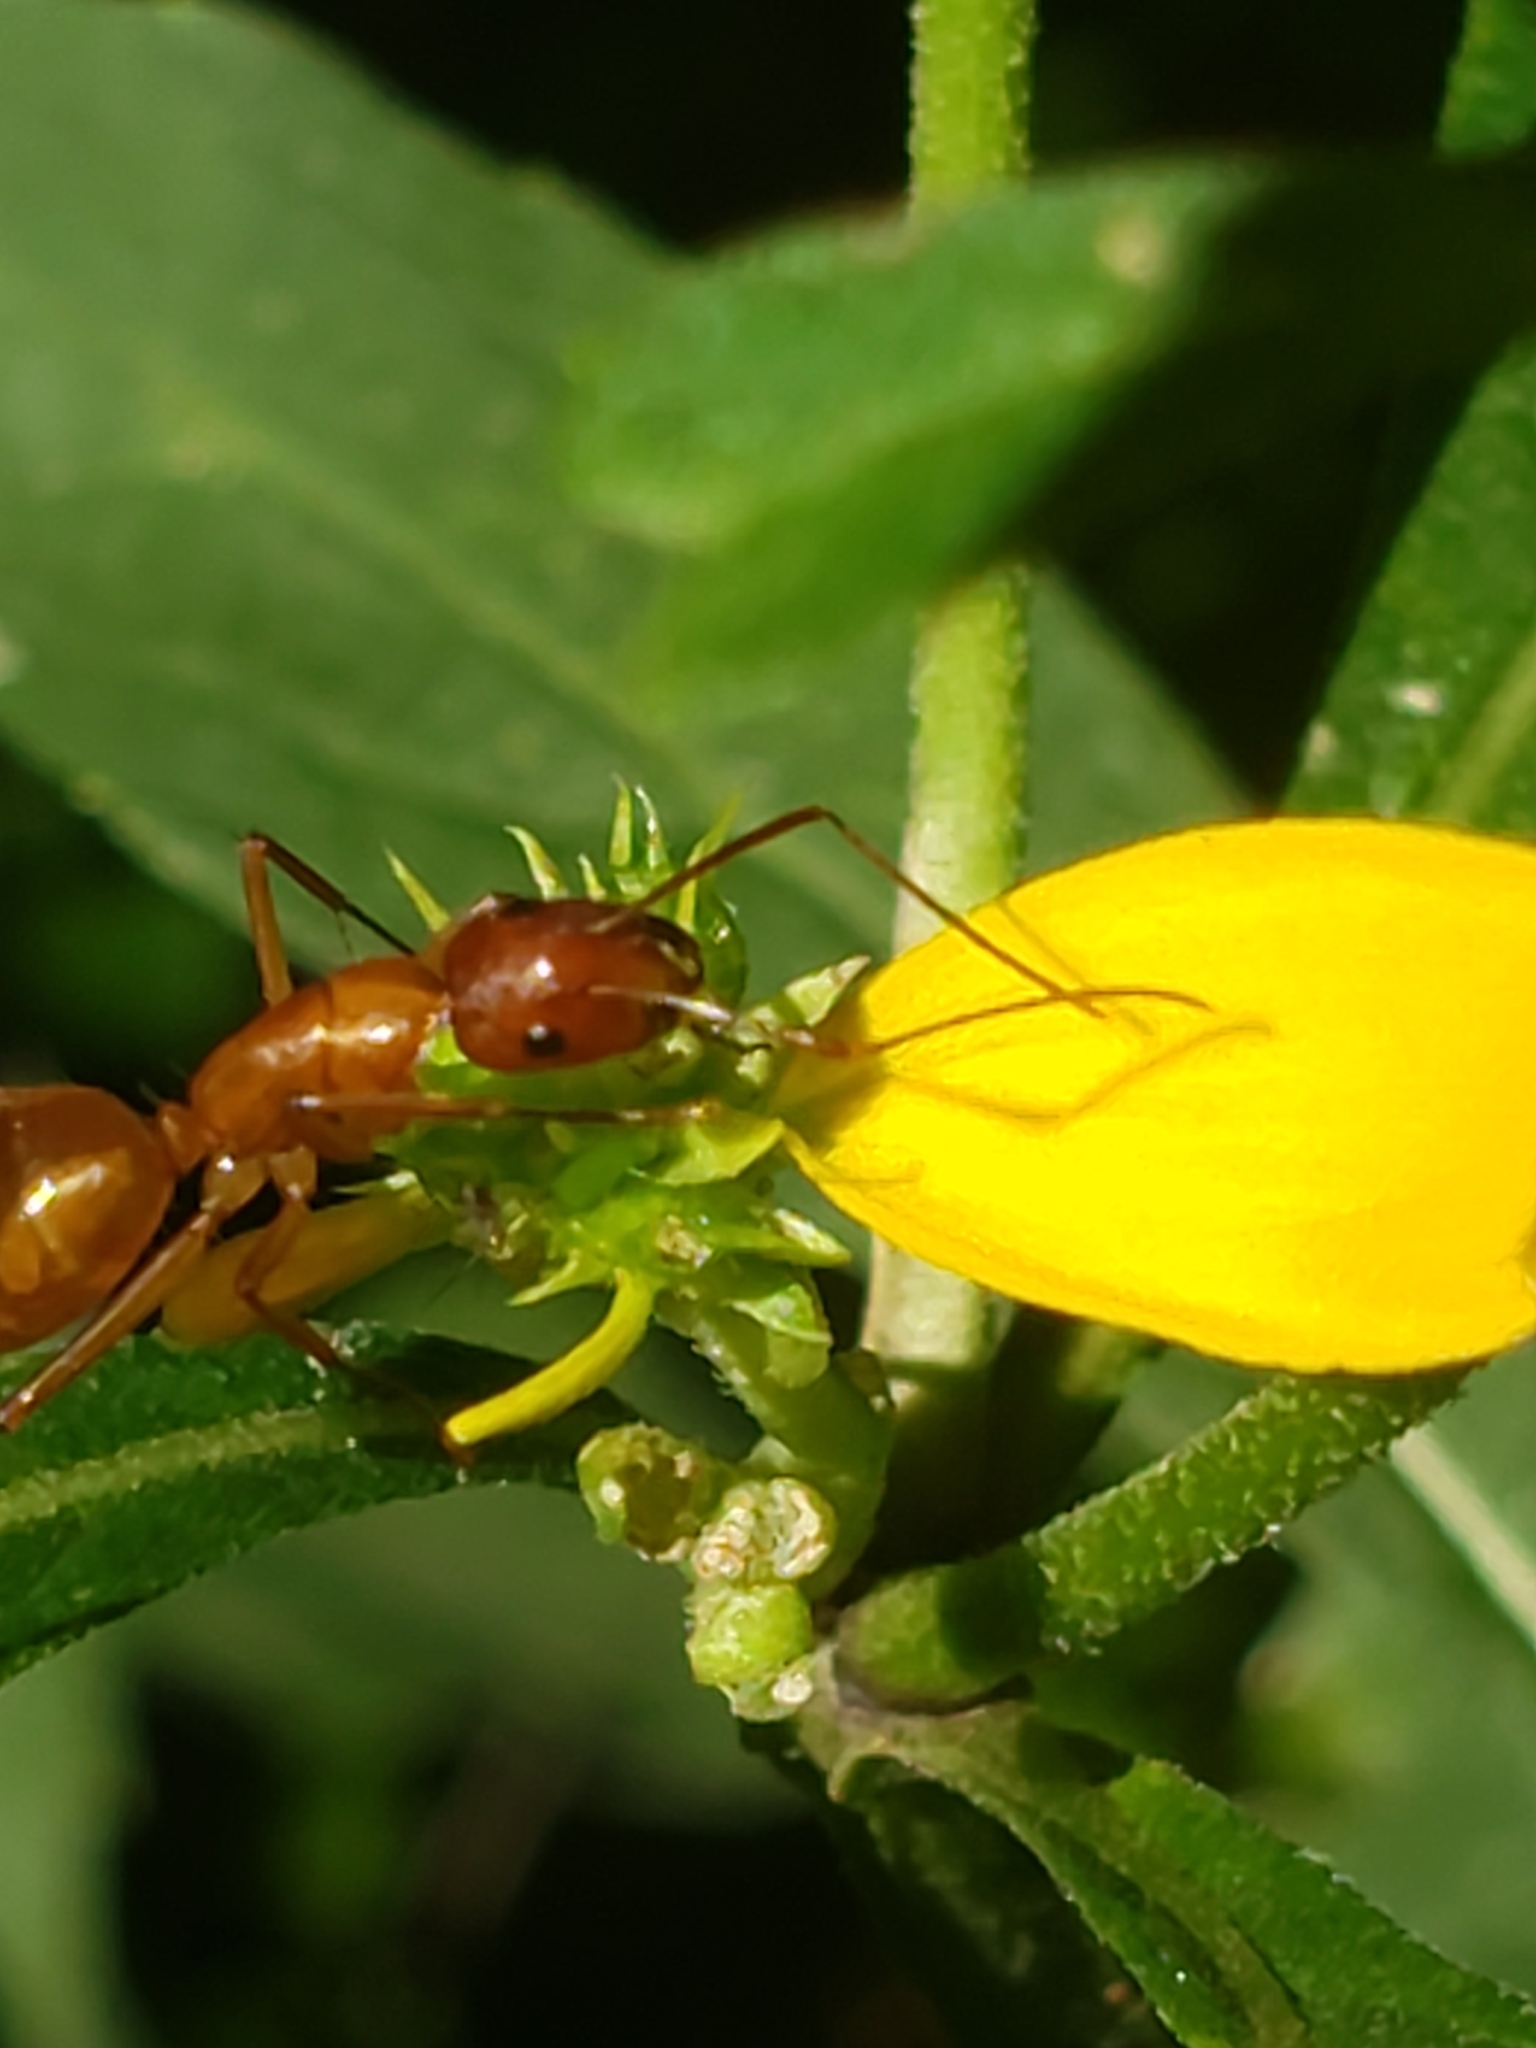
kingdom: Animalia
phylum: Arthropoda
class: Insecta
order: Hymenoptera
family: Formicidae
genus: Camponotus
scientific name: Camponotus castaneus
